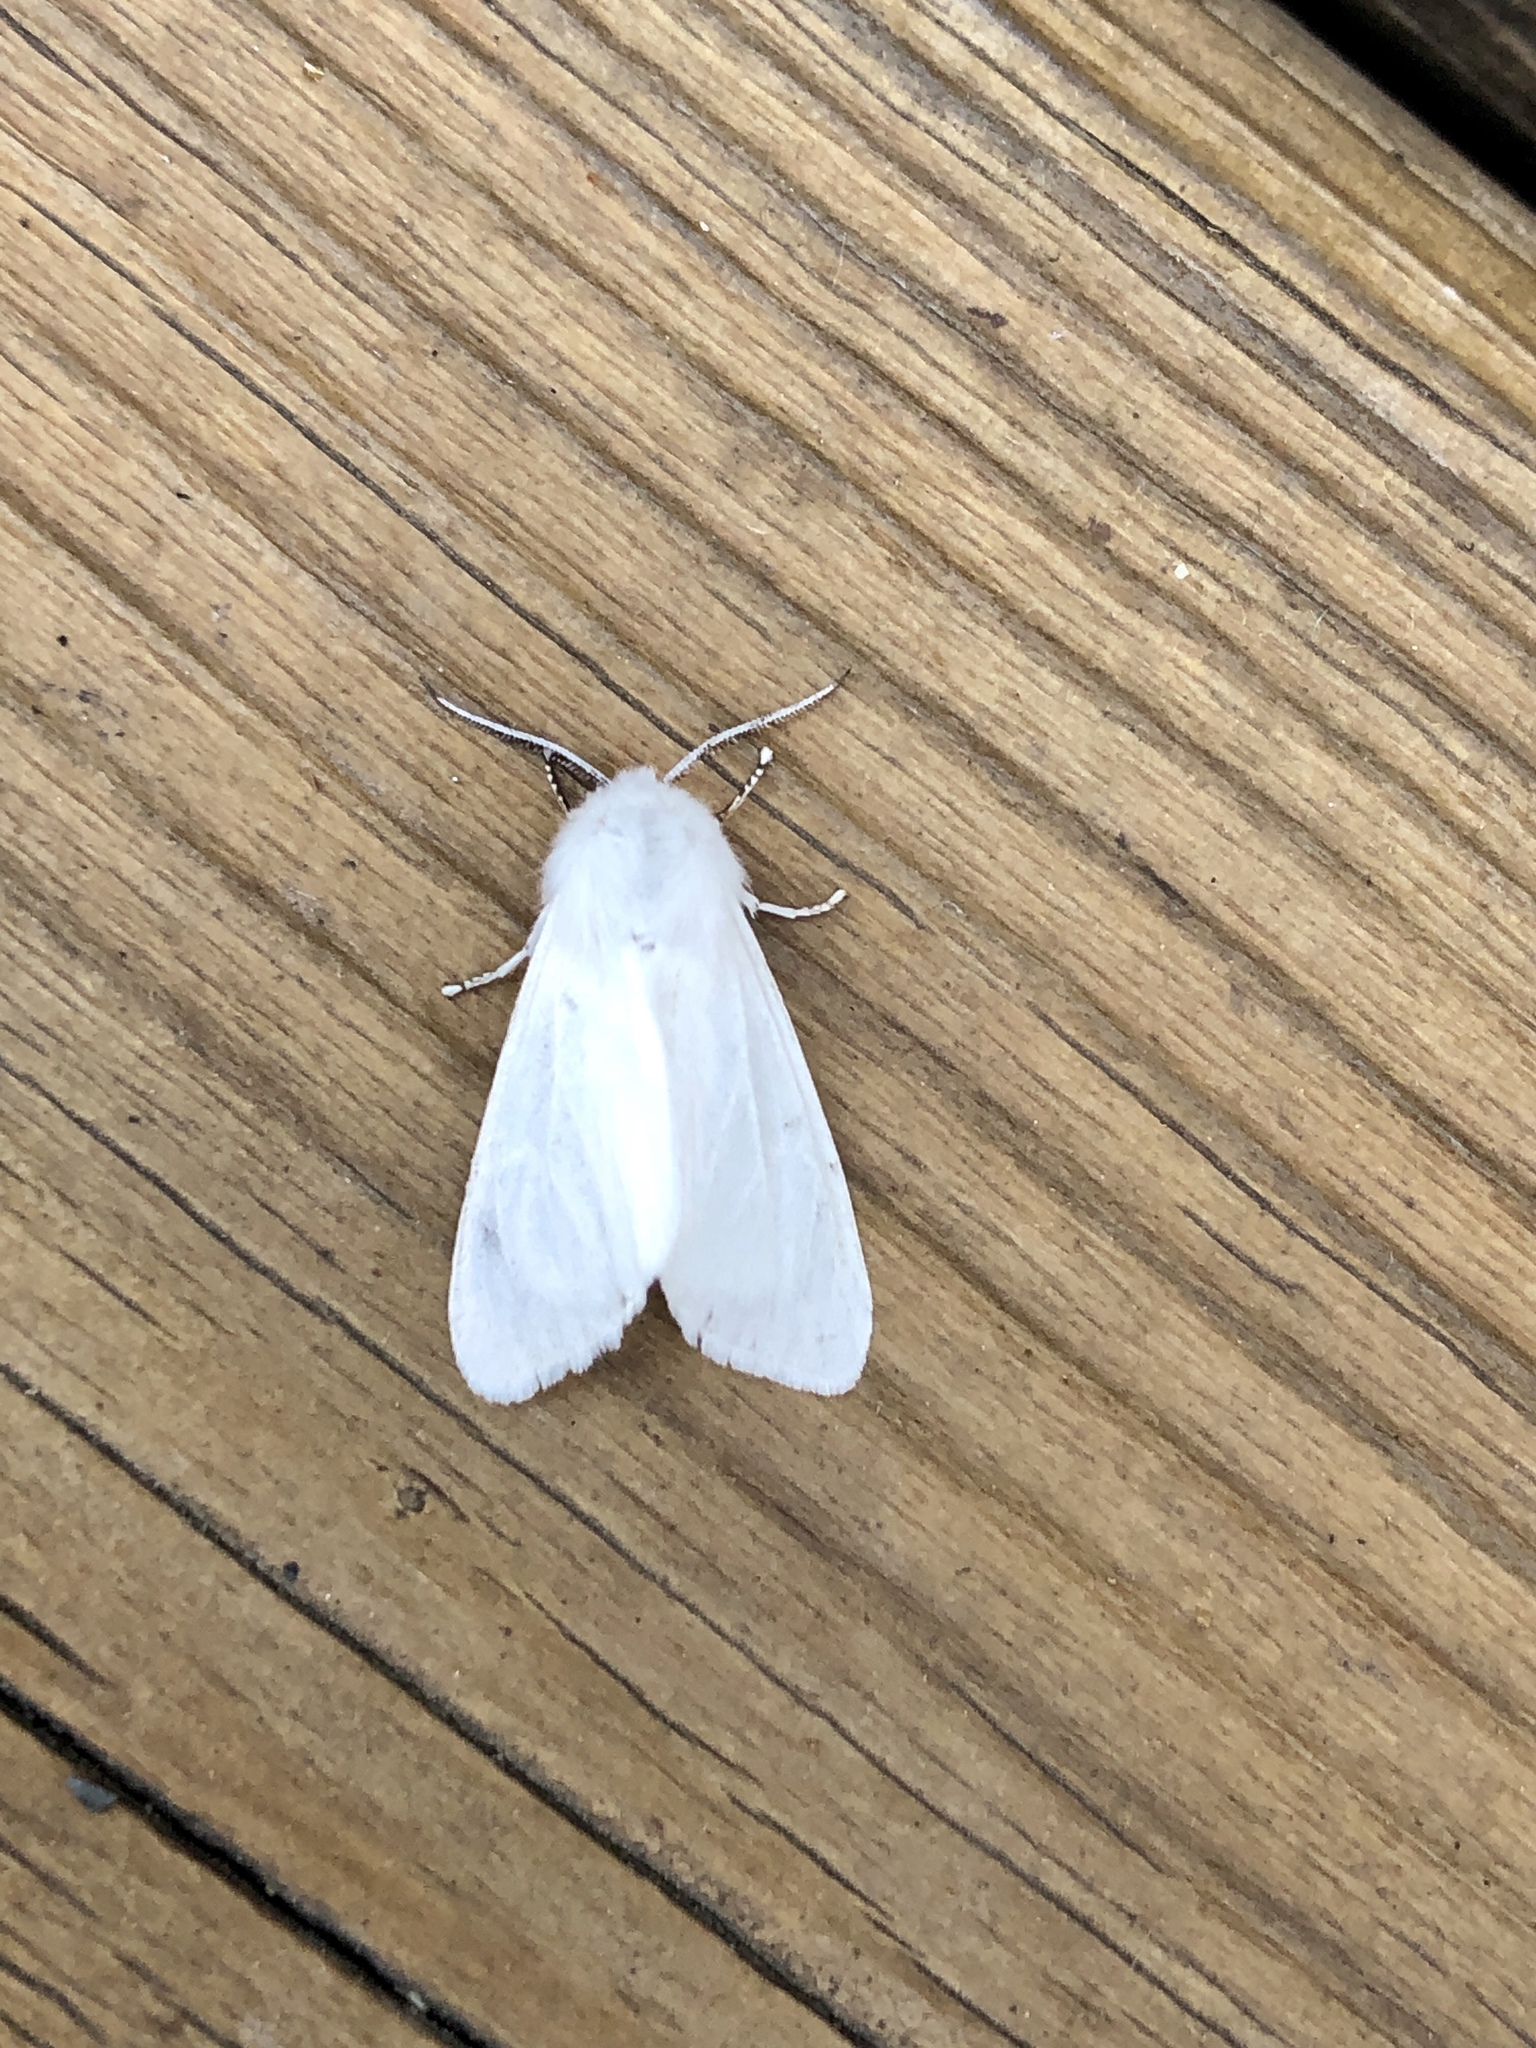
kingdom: Animalia
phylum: Arthropoda
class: Insecta
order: Lepidoptera
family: Erebidae
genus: Hyphantria
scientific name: Hyphantria cunea
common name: American white moth
